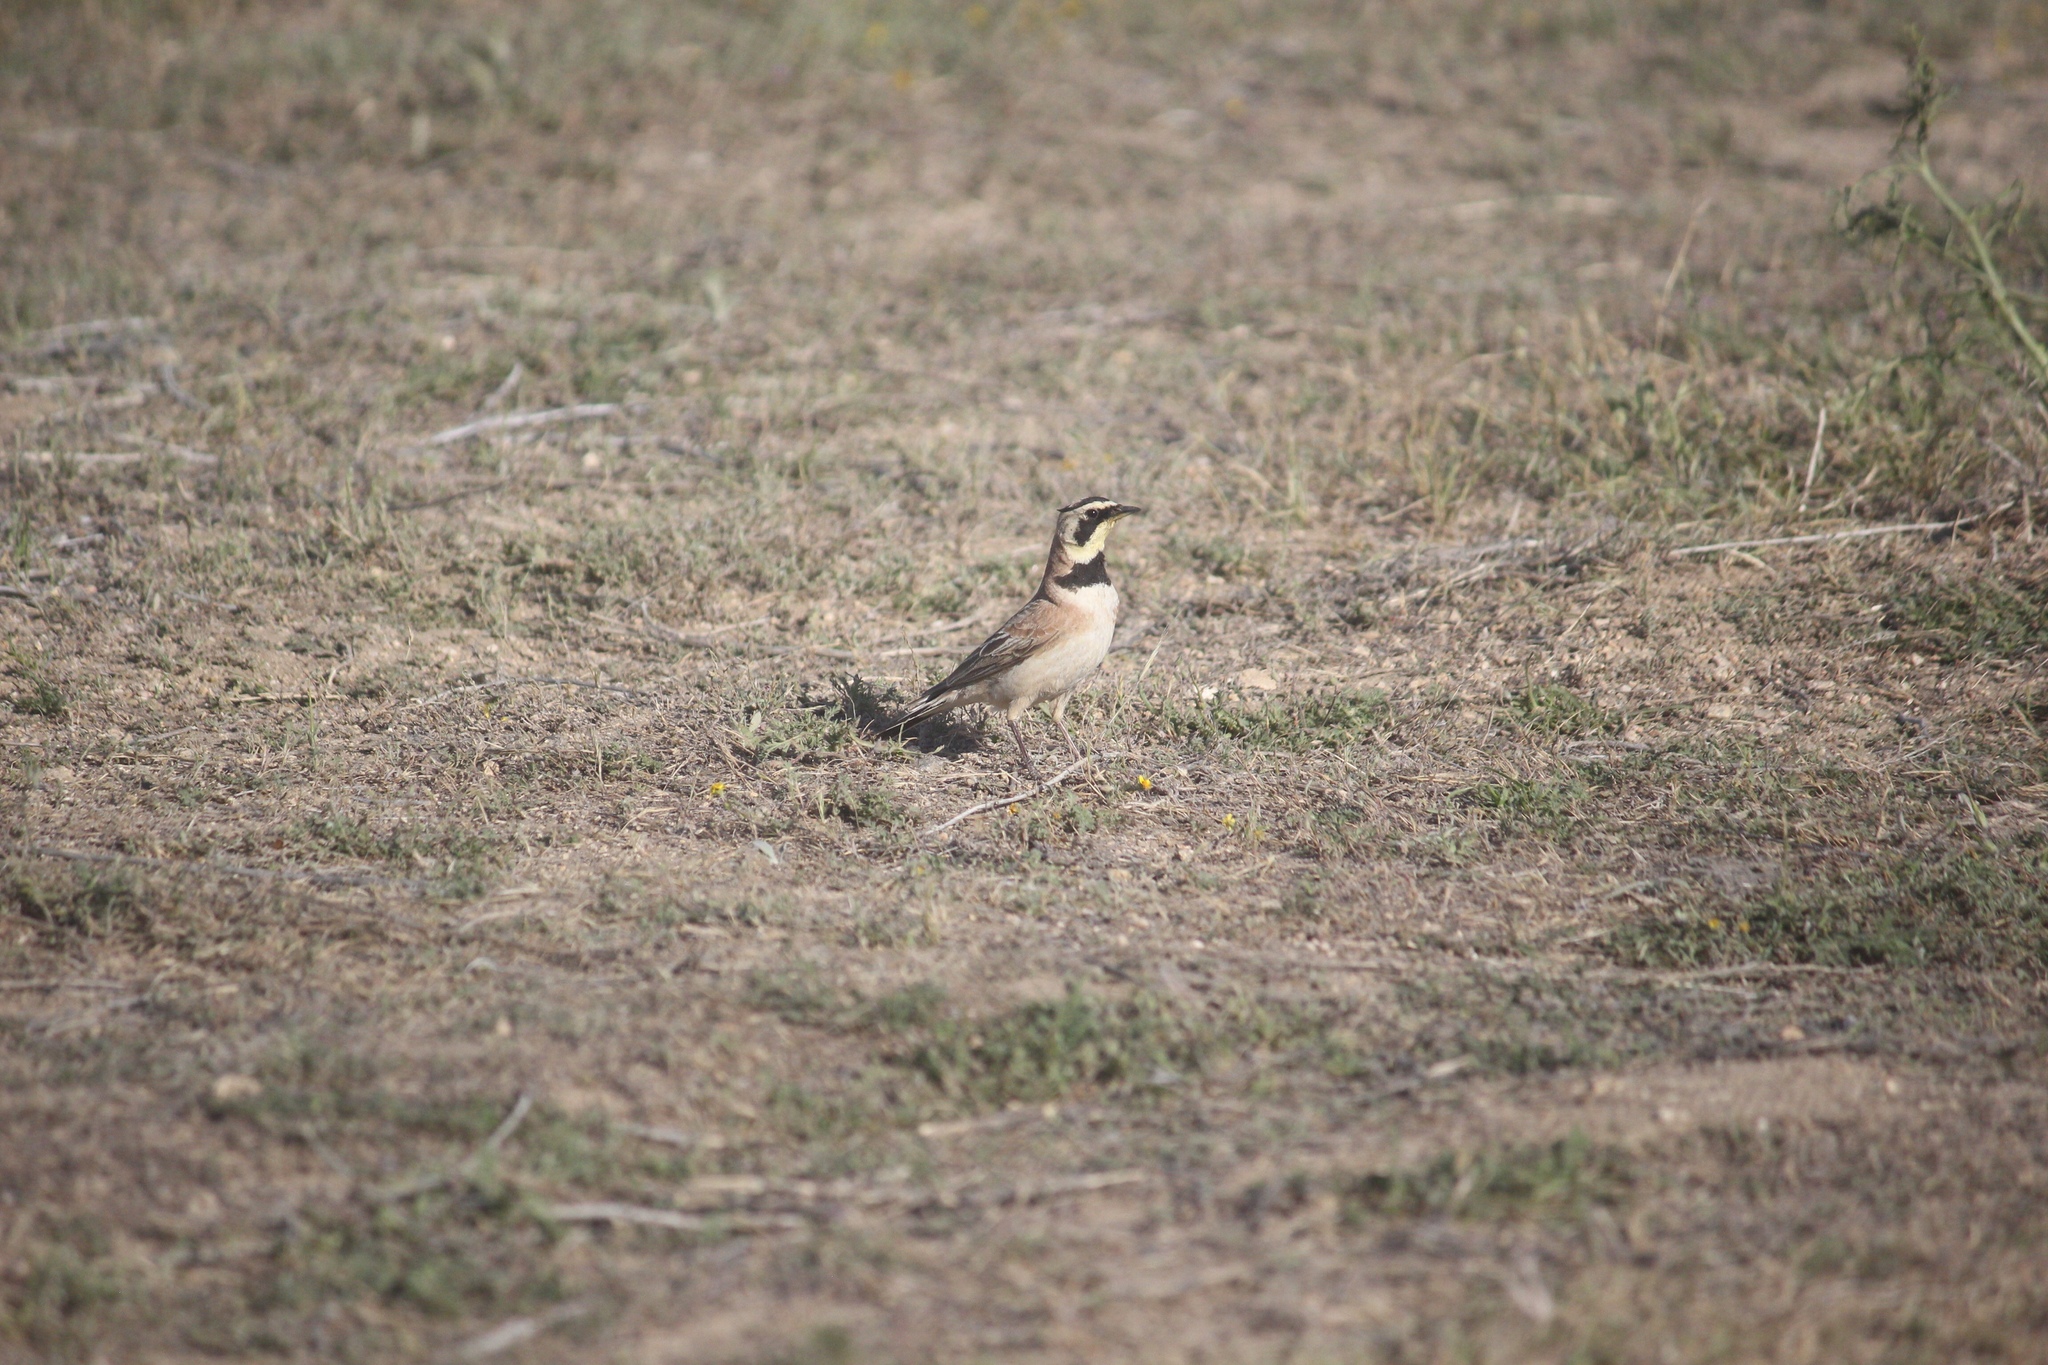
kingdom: Animalia
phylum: Chordata
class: Aves
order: Passeriformes
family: Alaudidae
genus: Eremophila
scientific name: Eremophila alpestris
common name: Horned lark
